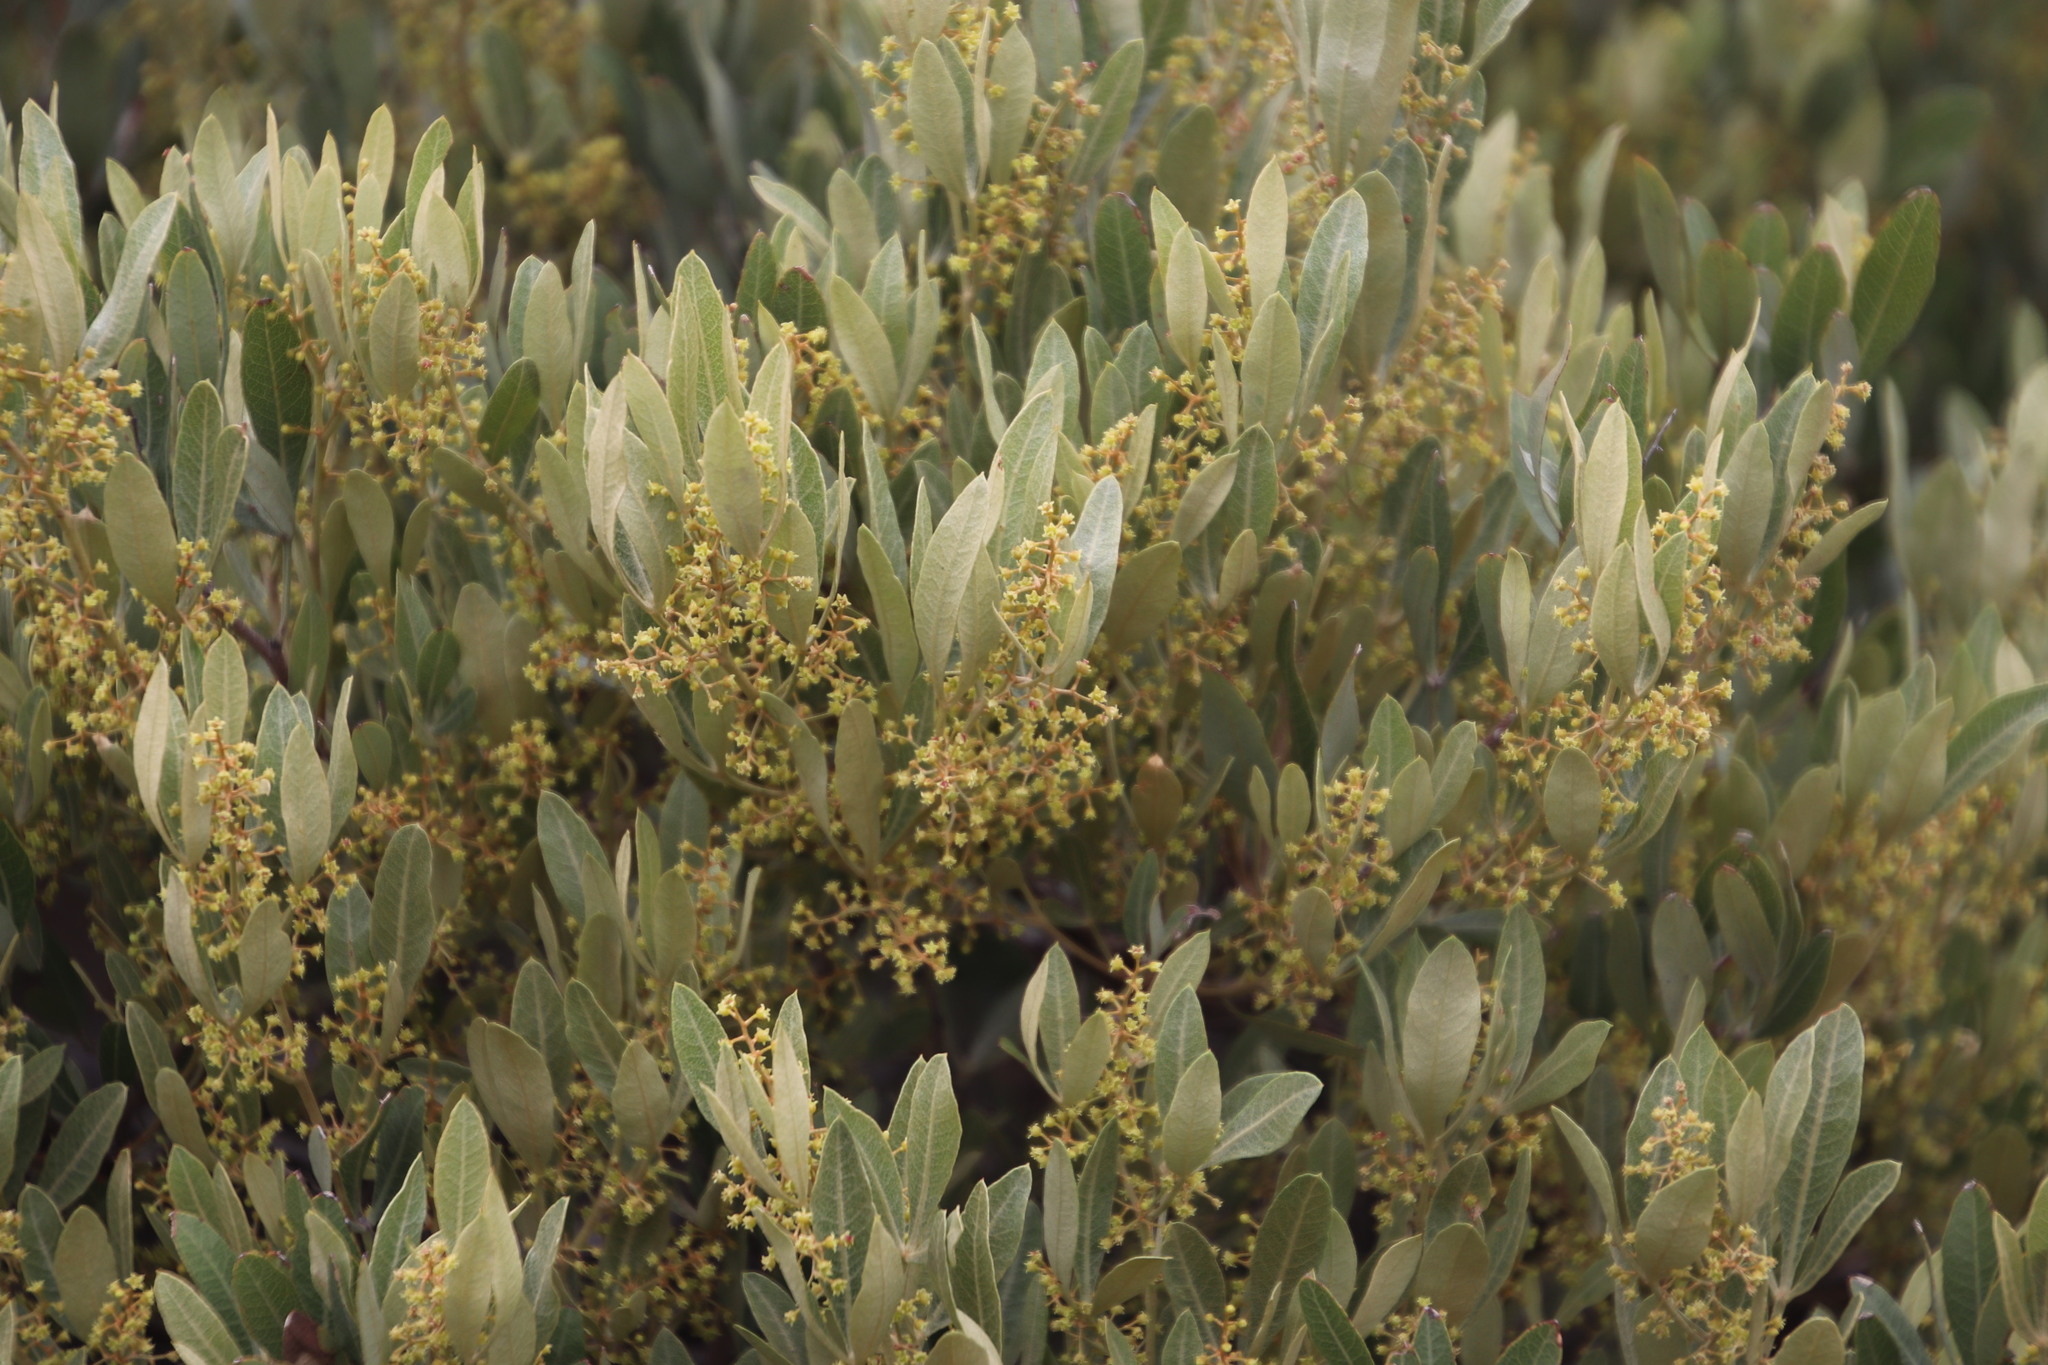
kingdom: Plantae
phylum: Tracheophyta
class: Magnoliopsida
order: Sapindales
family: Anacardiaceae
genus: Searsia
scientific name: Searsia magalismontana
